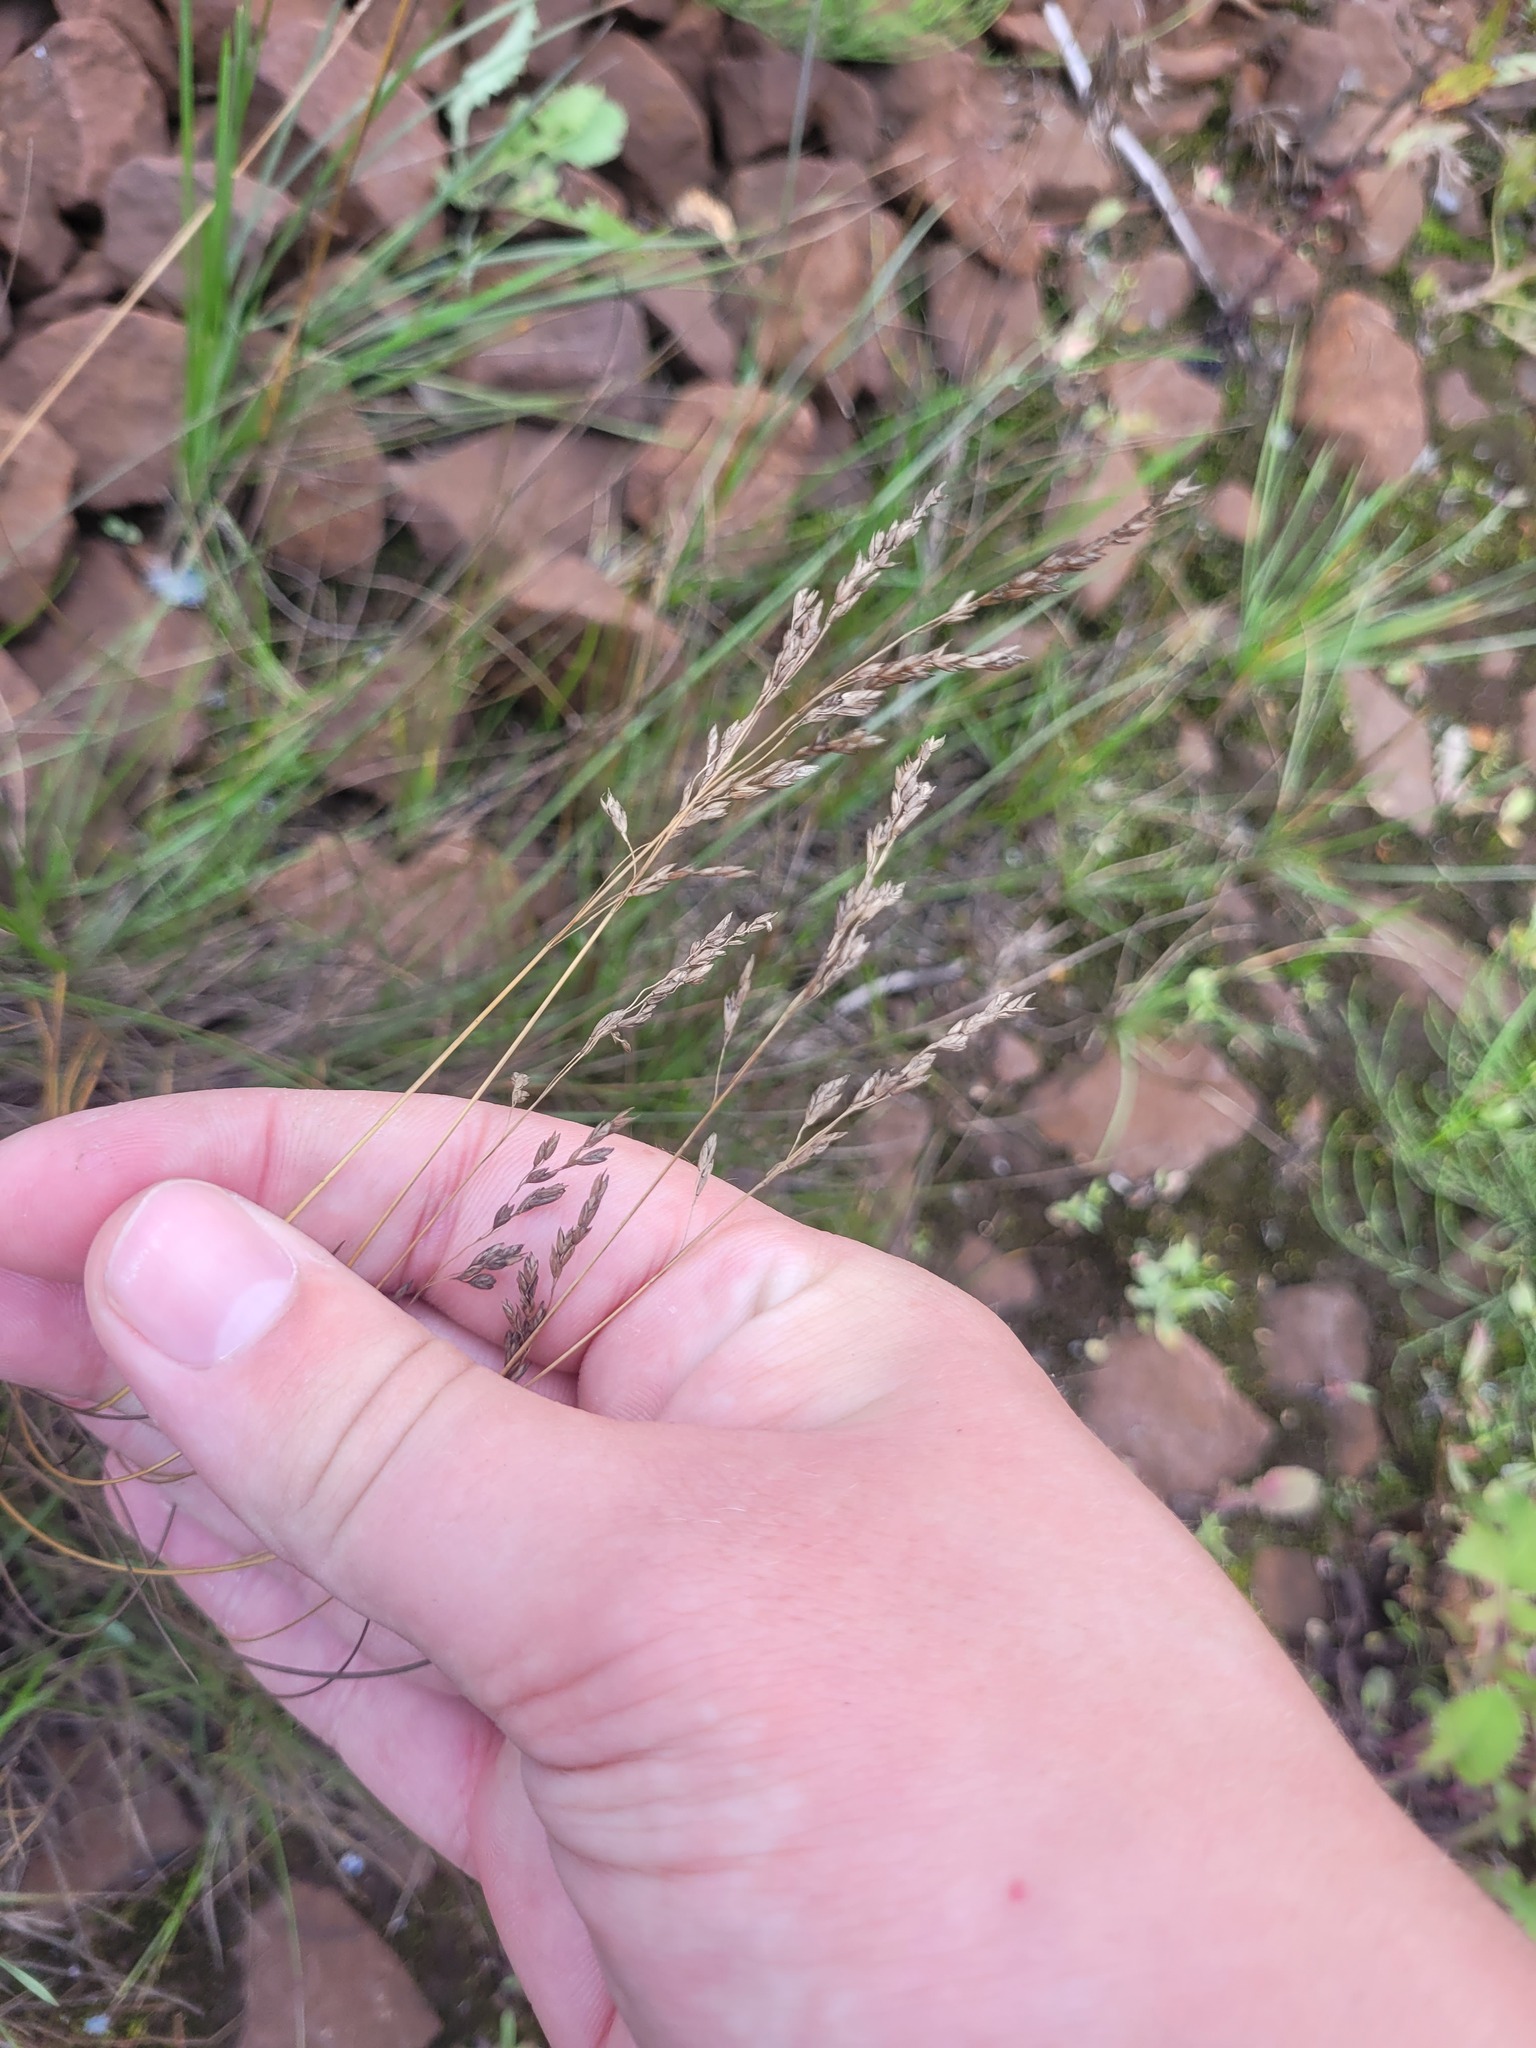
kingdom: Plantae
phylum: Tracheophyta
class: Liliopsida
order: Poales
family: Poaceae
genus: Poa
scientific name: Poa angustifolia
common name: Narrow-leaved meadow-grass
